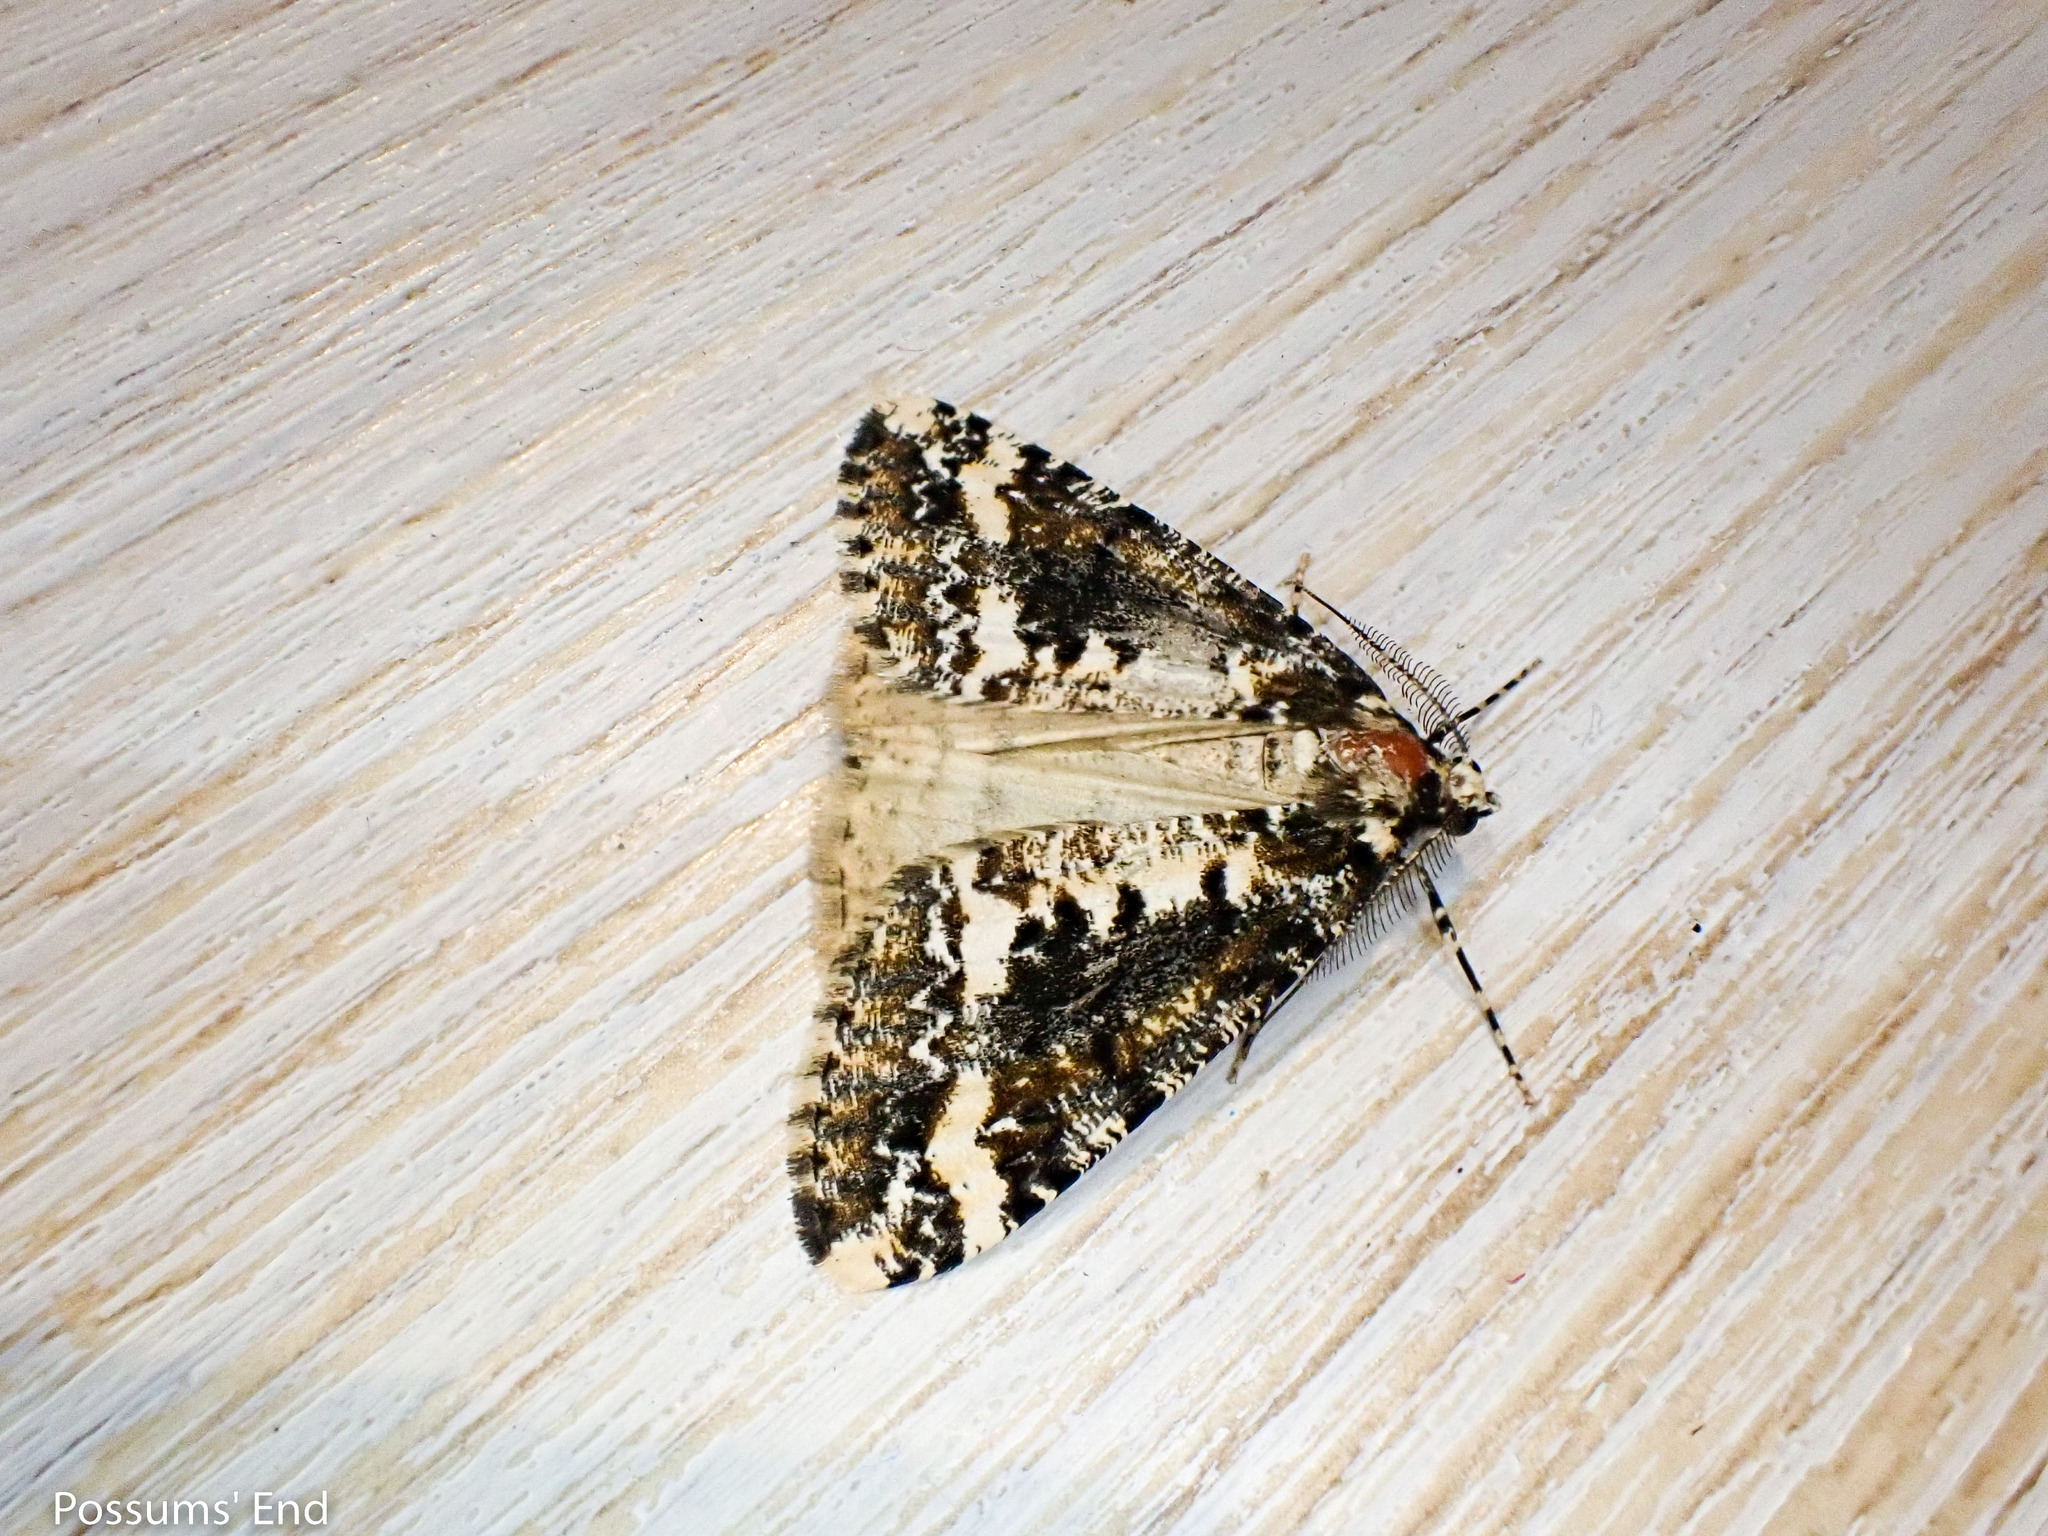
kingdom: Animalia
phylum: Arthropoda
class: Insecta
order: Lepidoptera
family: Geometridae
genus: Pseudocoremia
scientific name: Pseudocoremia leucelaea
